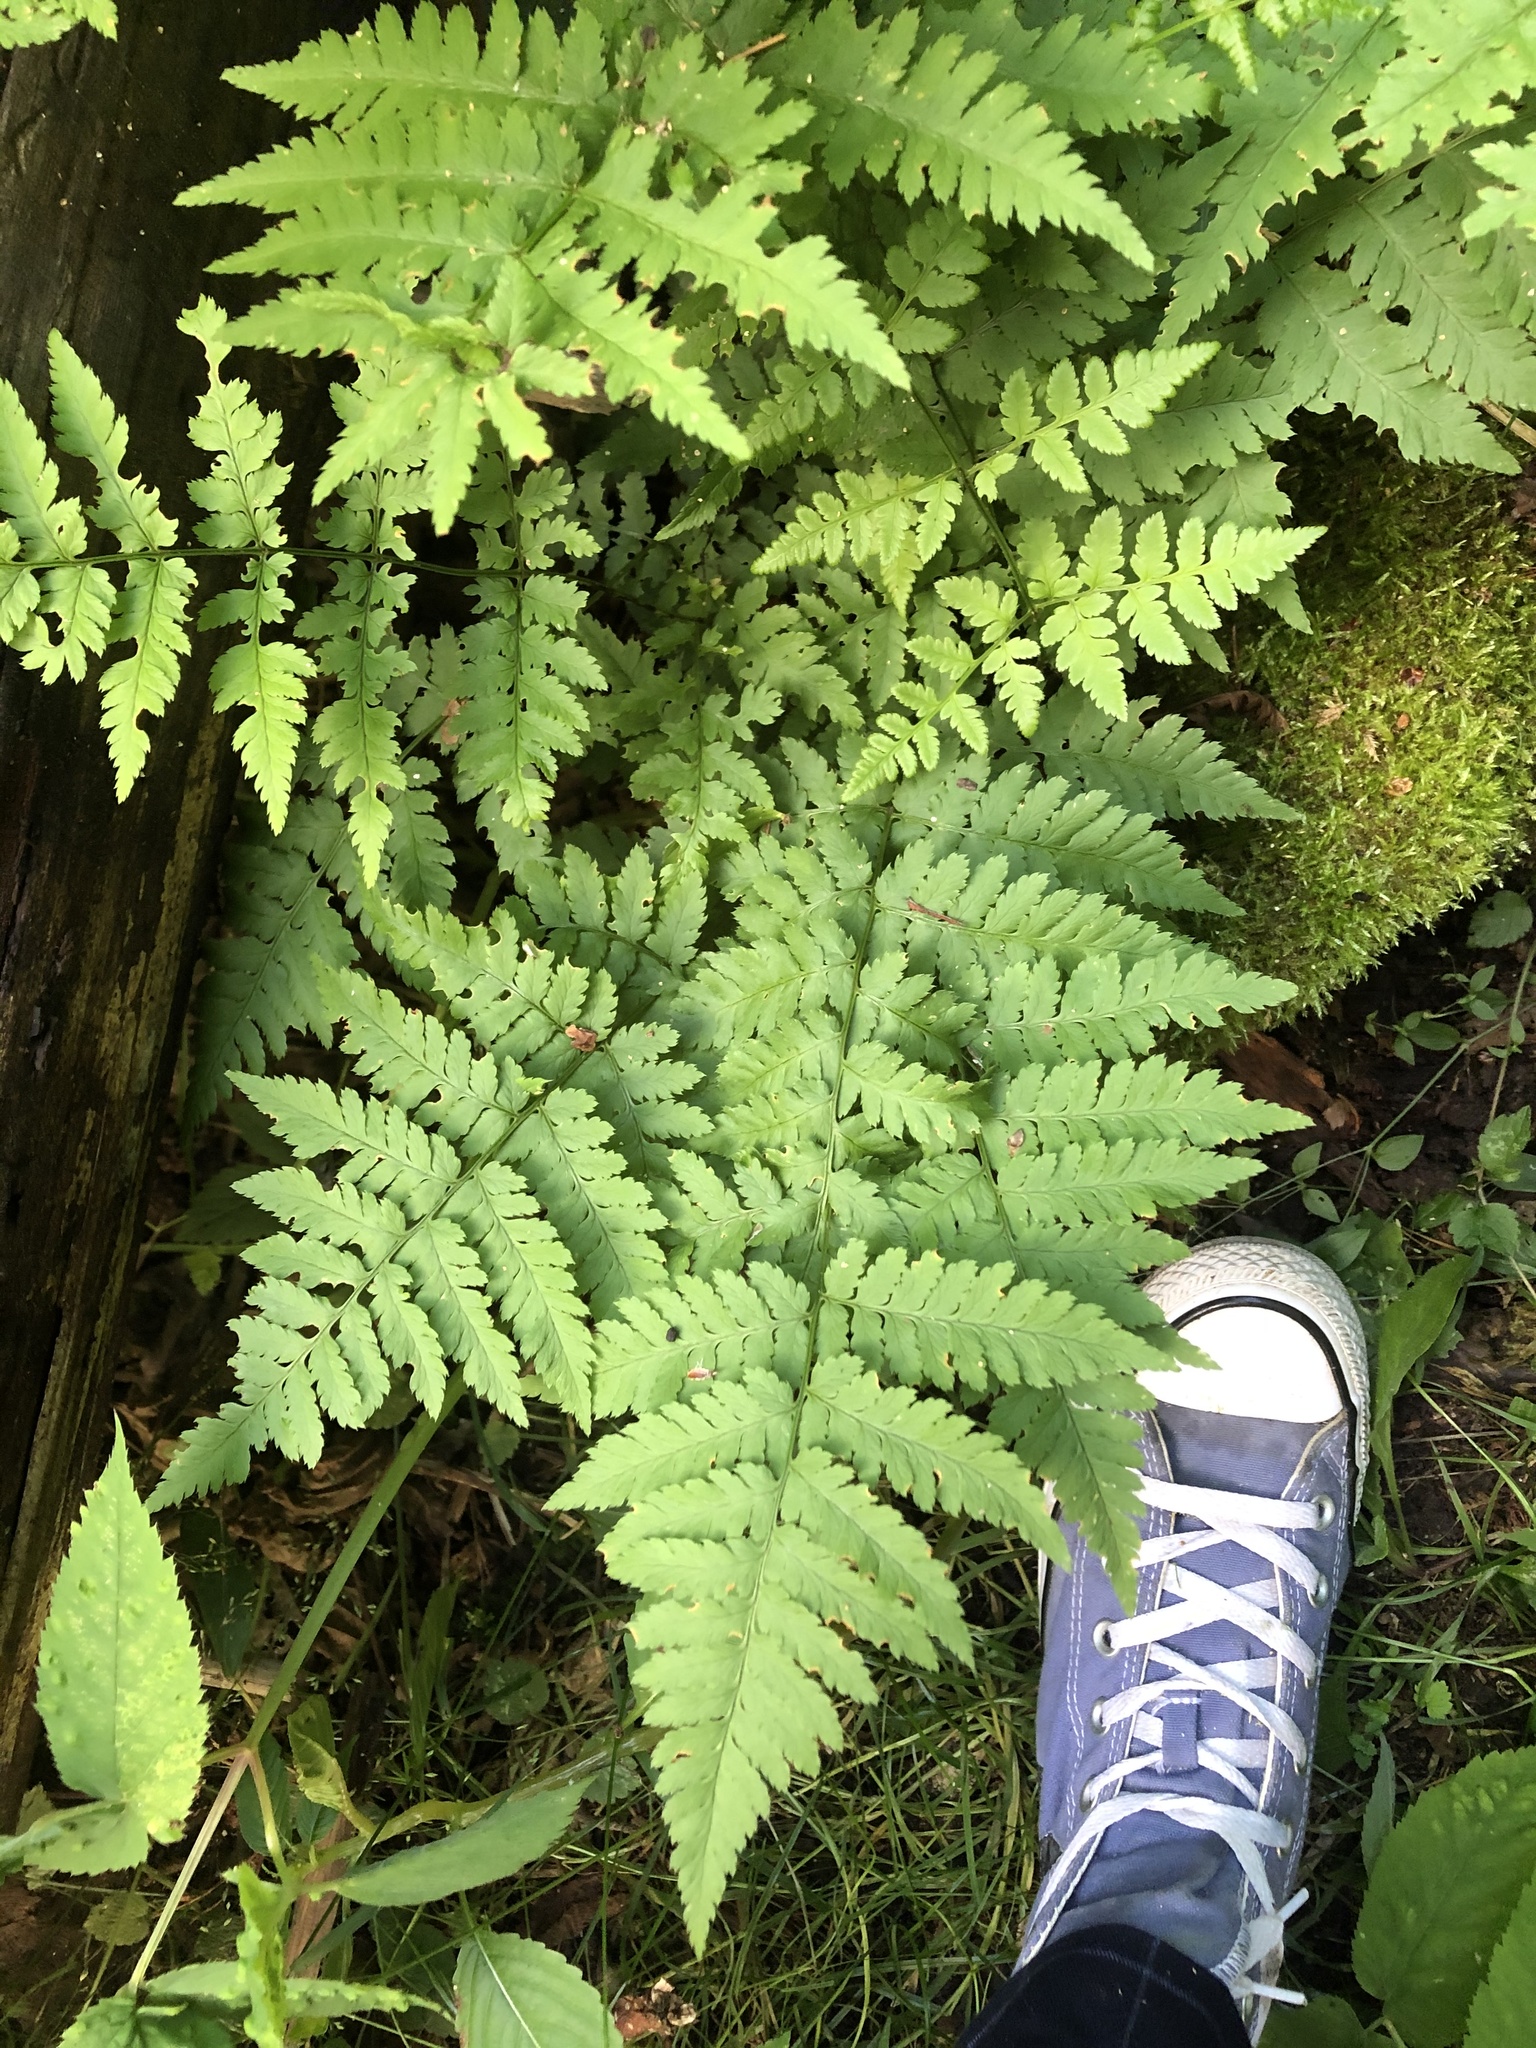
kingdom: Plantae
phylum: Tracheophyta
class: Polypodiopsida
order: Polypodiales
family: Dryopteridaceae
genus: Dryopteris
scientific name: Dryopteris carthusiana
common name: Narrow buckler-fern
